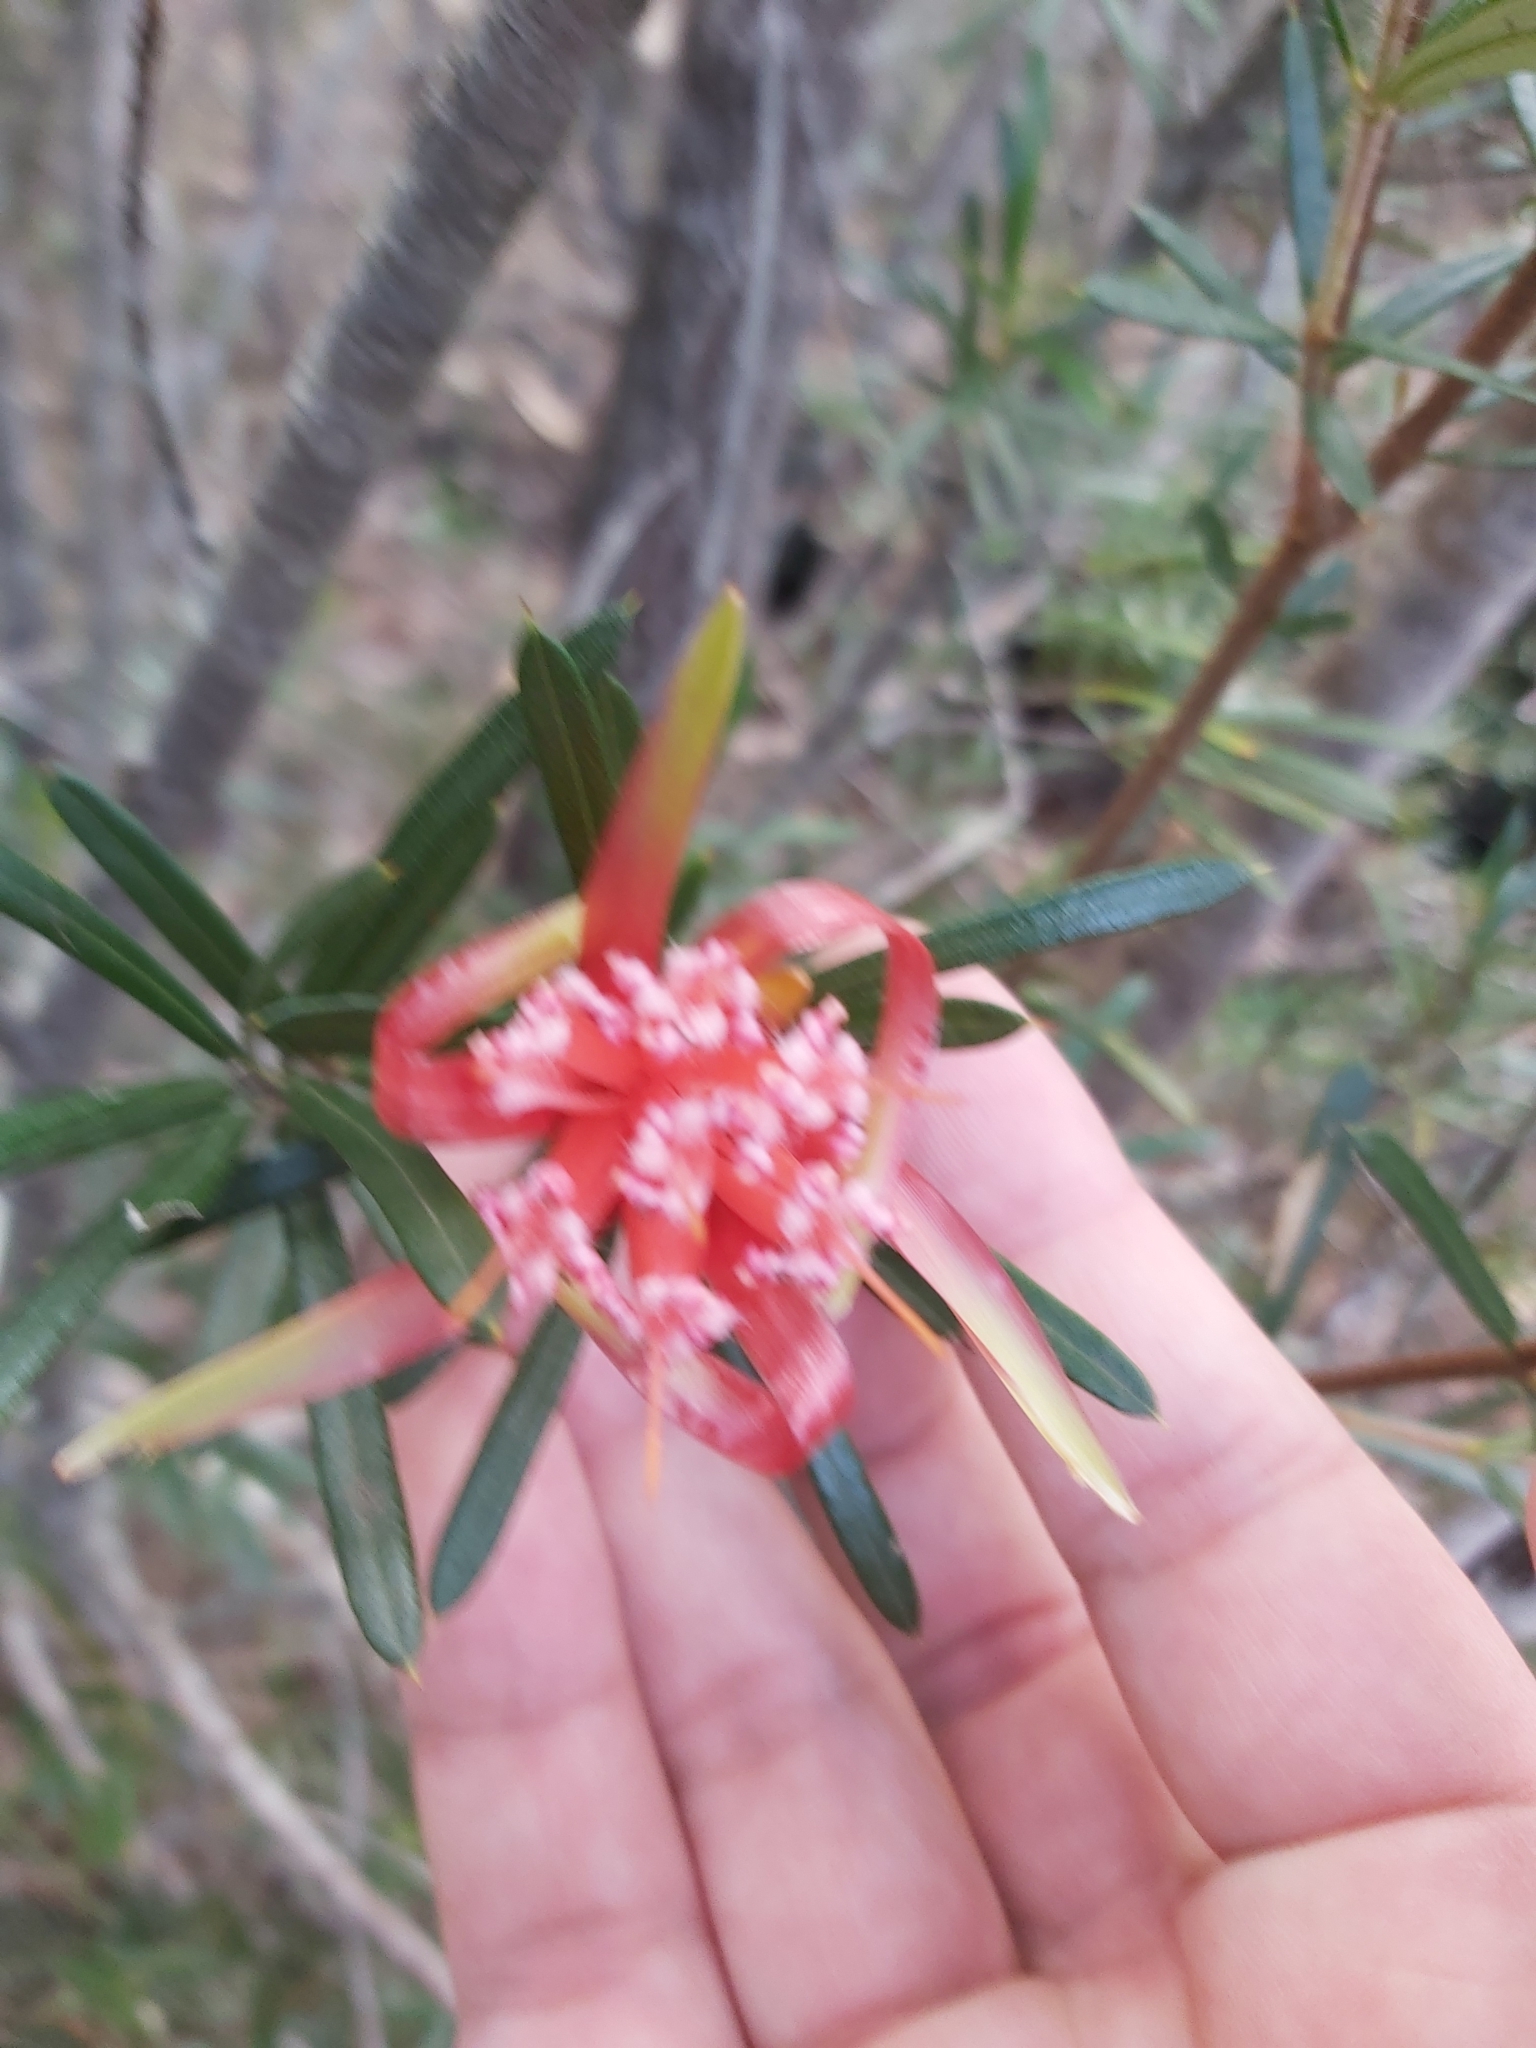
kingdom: Plantae
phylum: Tracheophyta
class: Magnoliopsida
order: Proteales
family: Proteaceae
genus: Lambertia
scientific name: Lambertia formosa
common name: Mountain-devil
